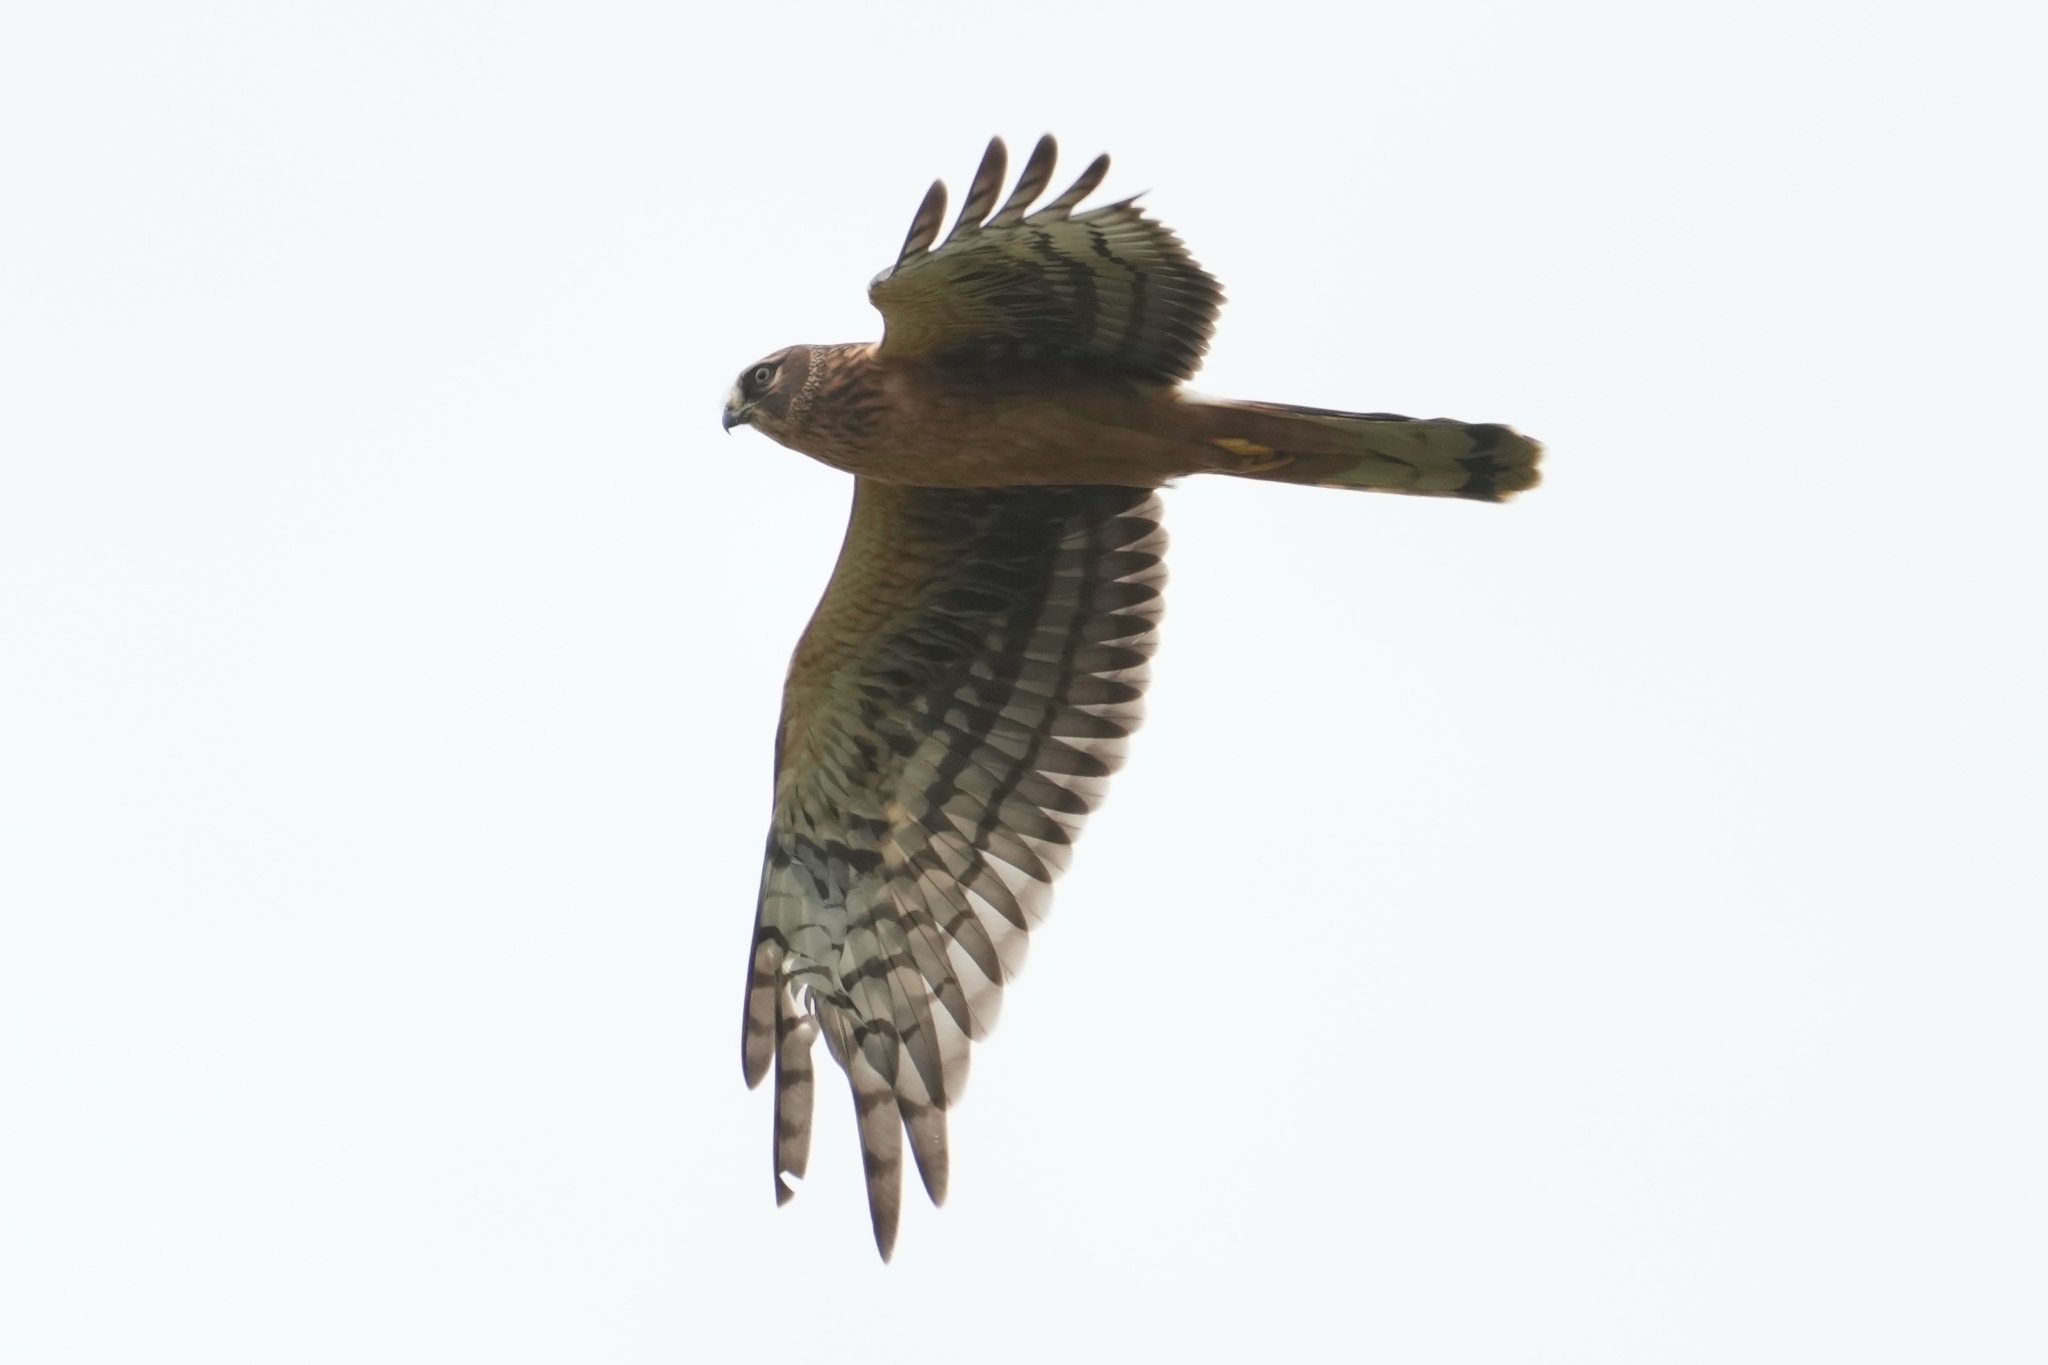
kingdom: Animalia
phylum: Chordata
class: Aves
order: Accipitriformes
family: Accipitridae
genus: Circus
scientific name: Circus cyaneus
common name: Hen harrier
